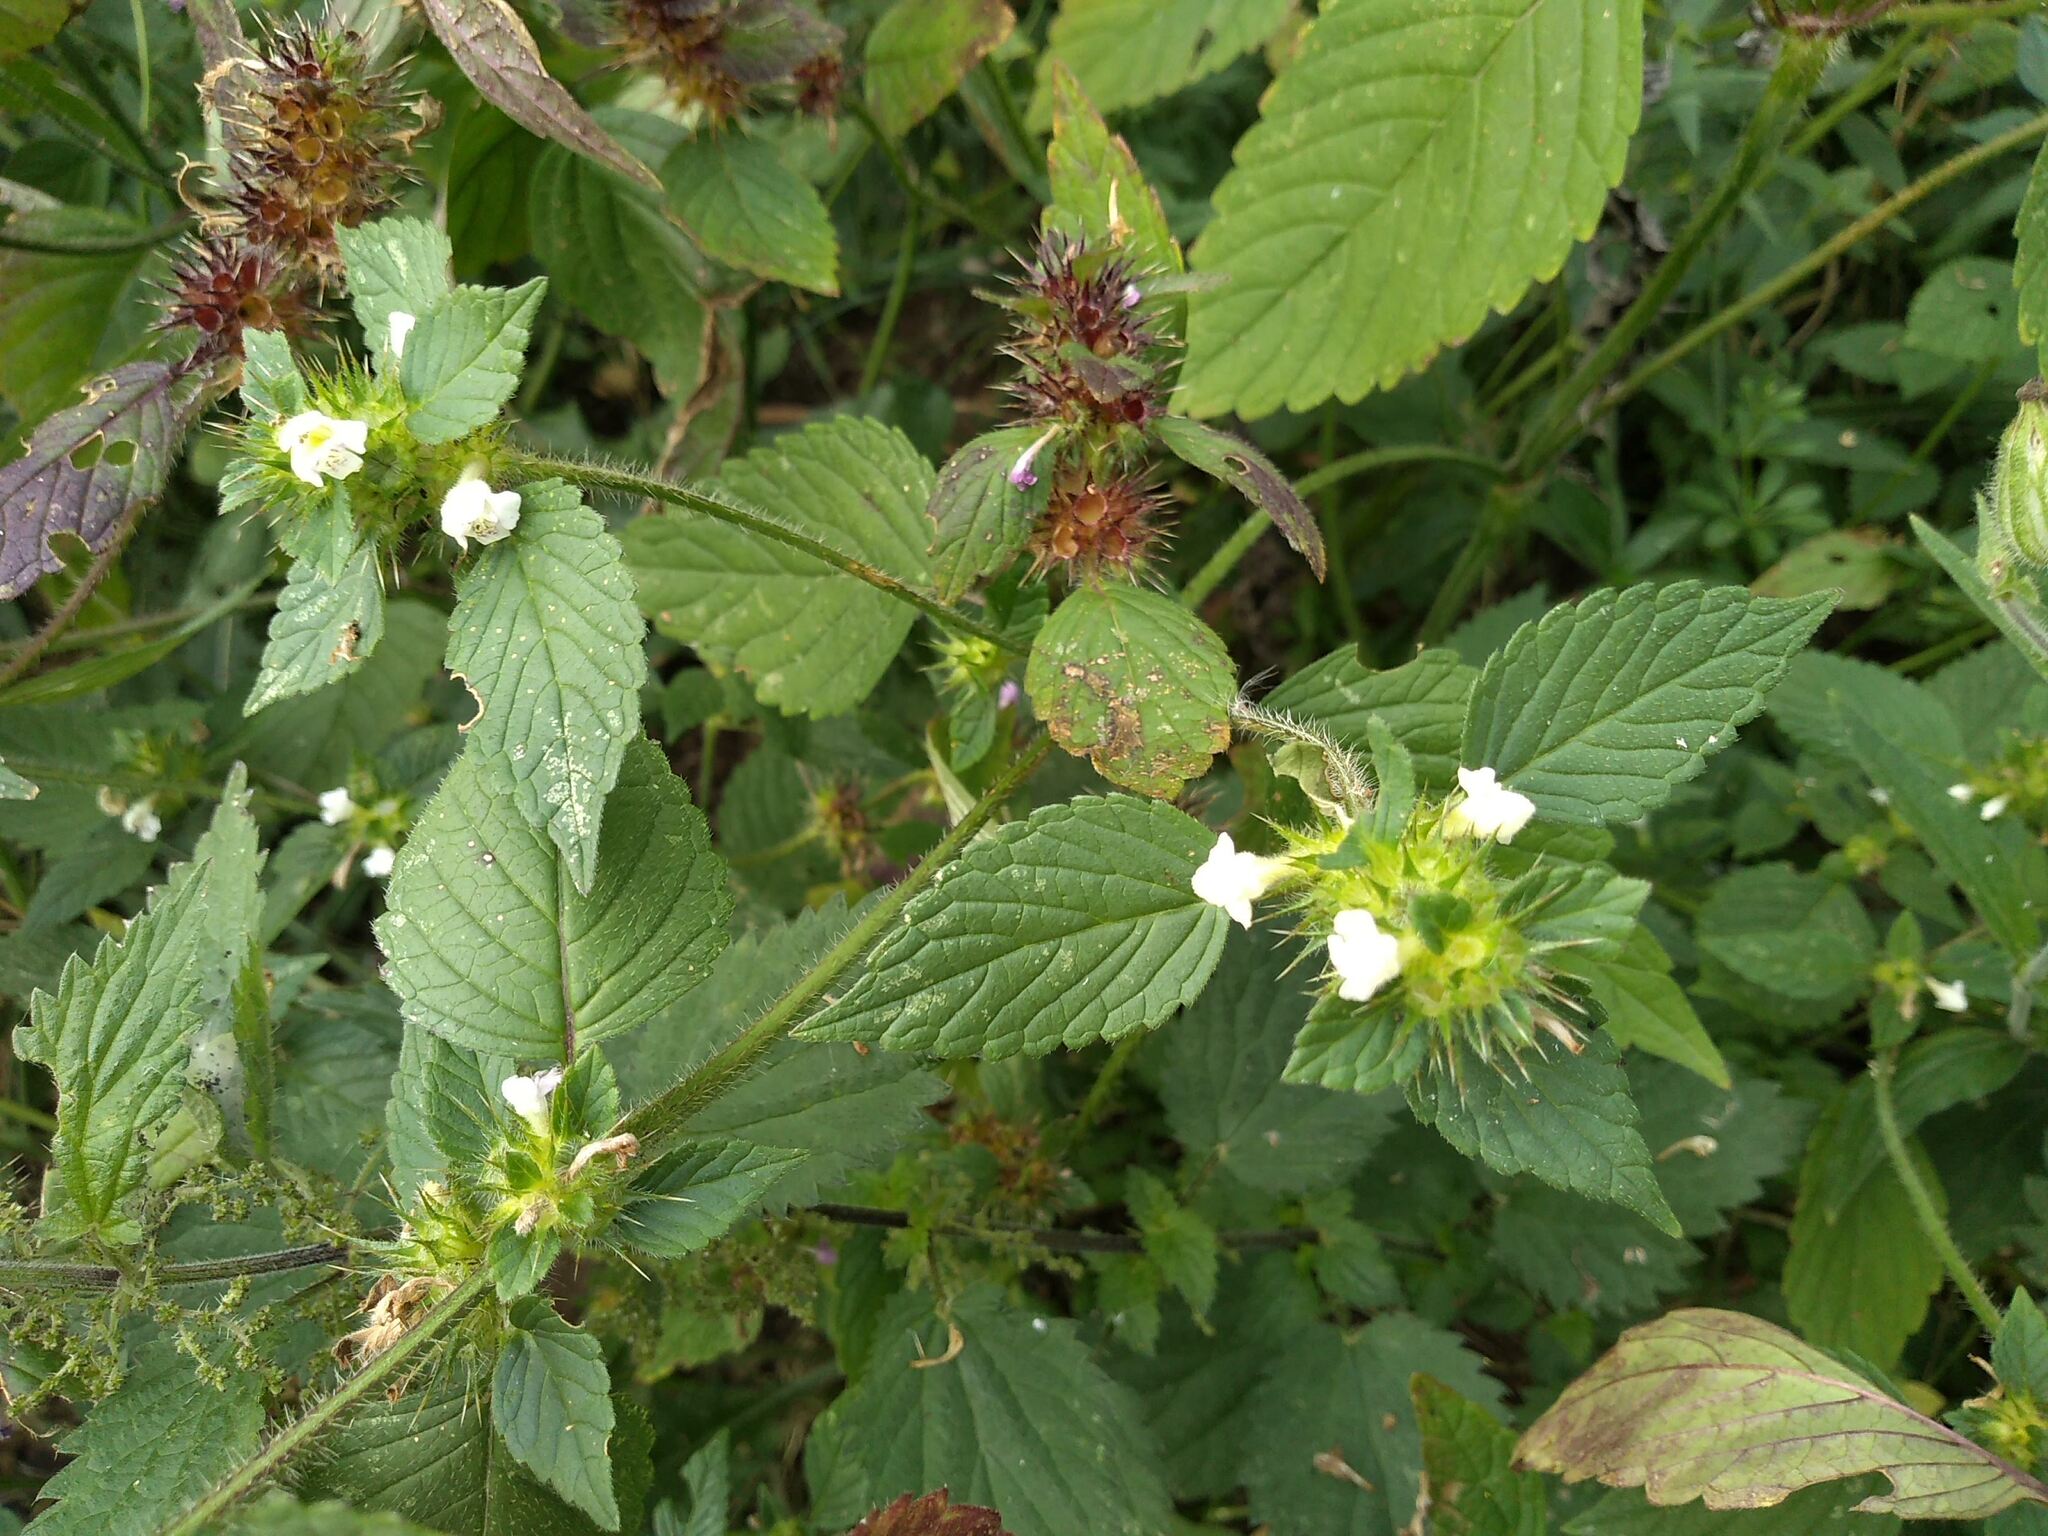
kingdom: Plantae
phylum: Tracheophyta
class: Magnoliopsida
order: Lamiales
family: Lamiaceae
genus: Galeopsis
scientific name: Galeopsis tetrahit
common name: Common hemp-nettle
